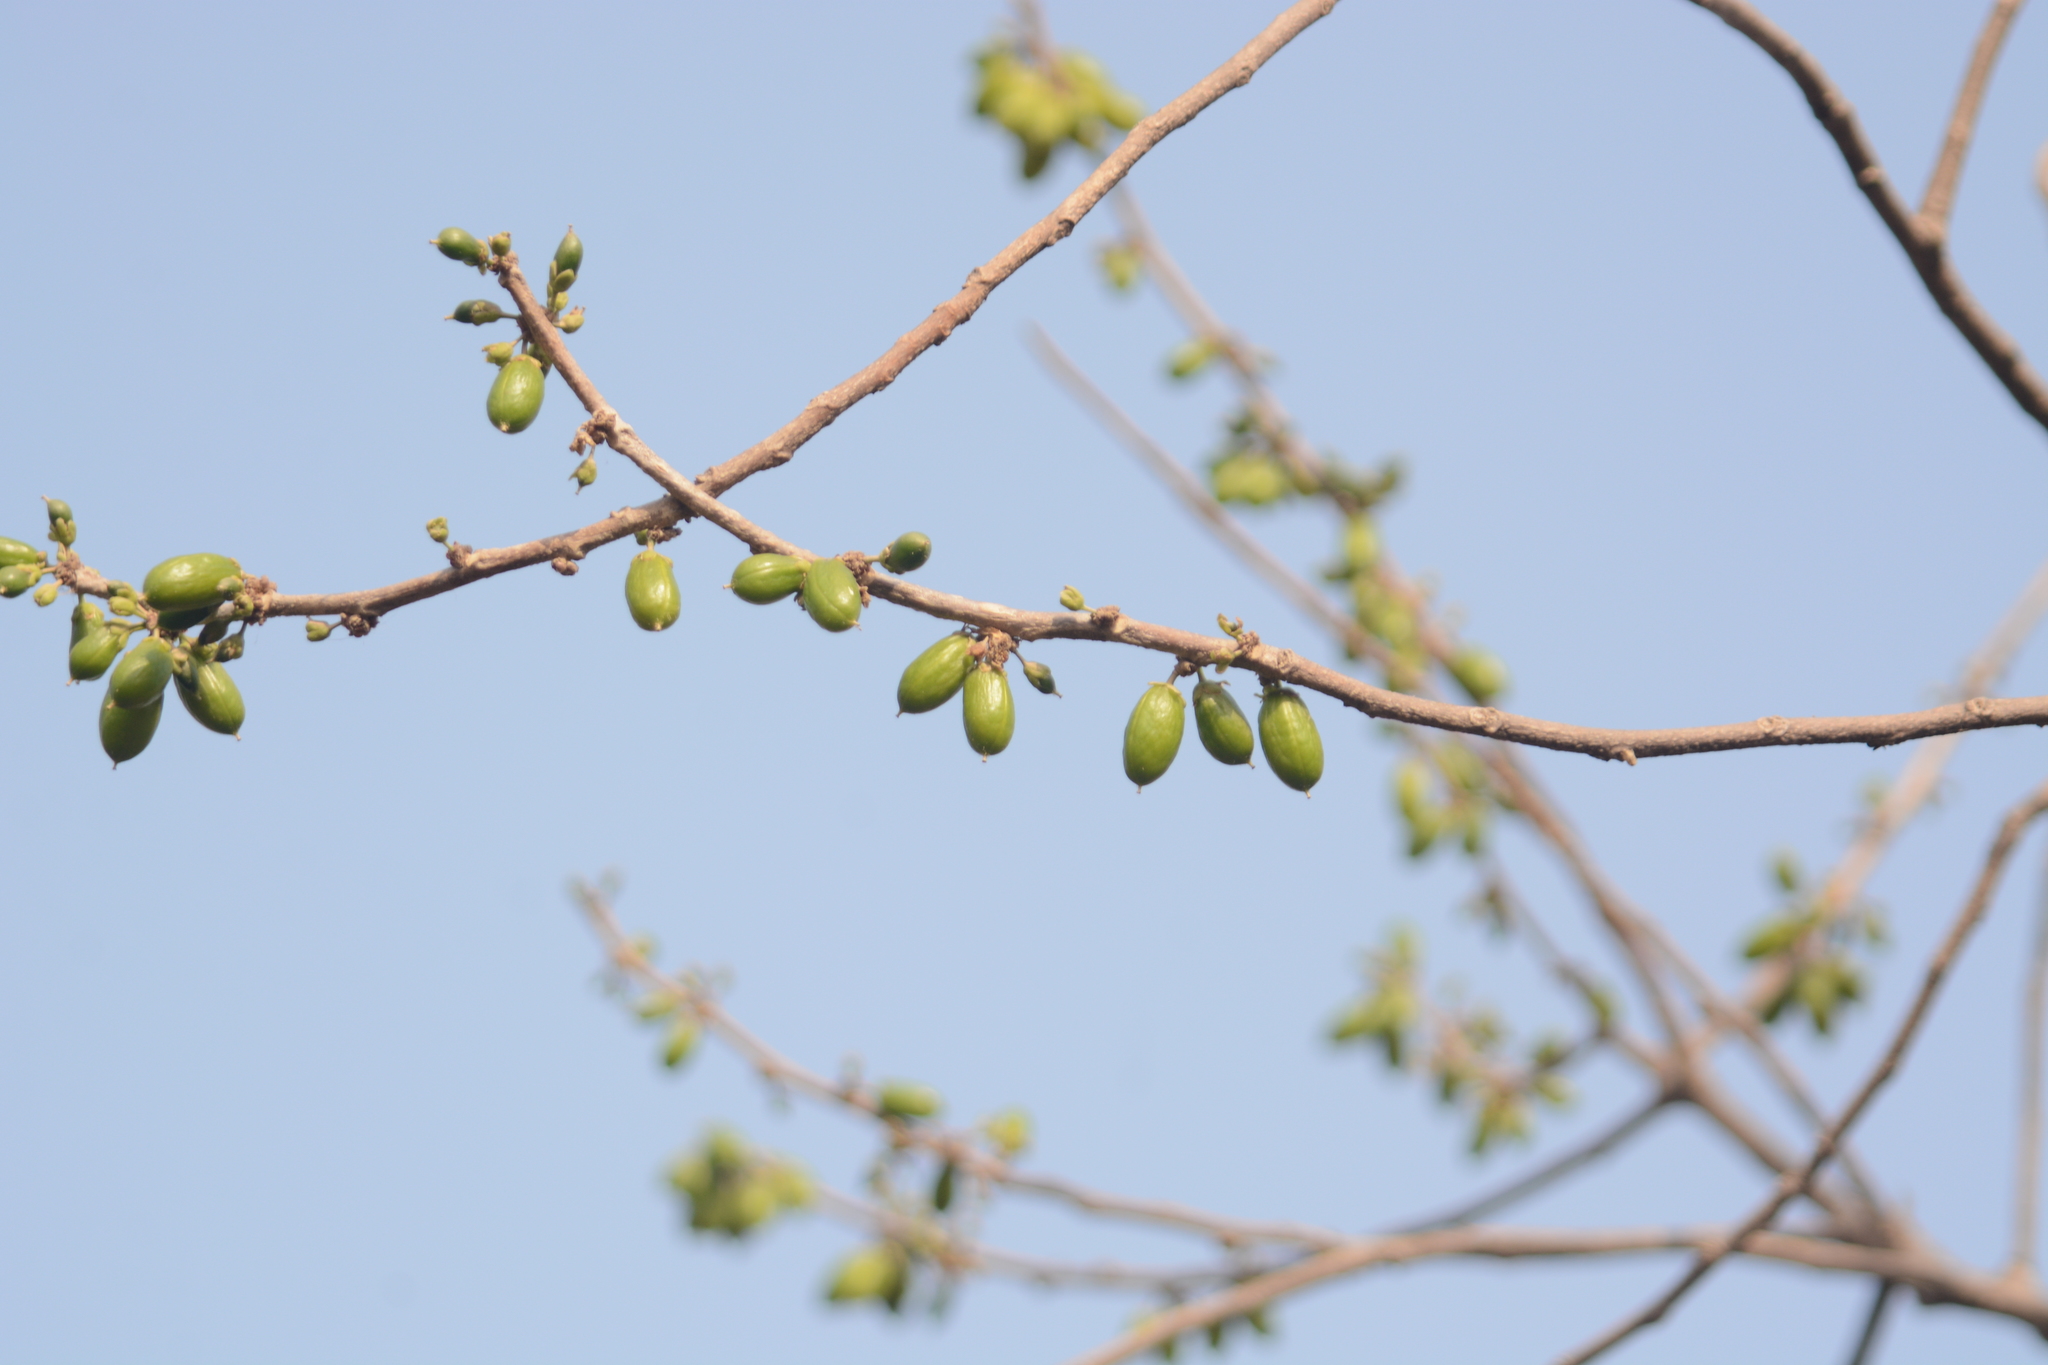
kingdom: Plantae
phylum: Tracheophyta
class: Magnoliopsida
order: Malpighiales
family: Salicaceae
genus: Casearia
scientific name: Casearia graveolens
